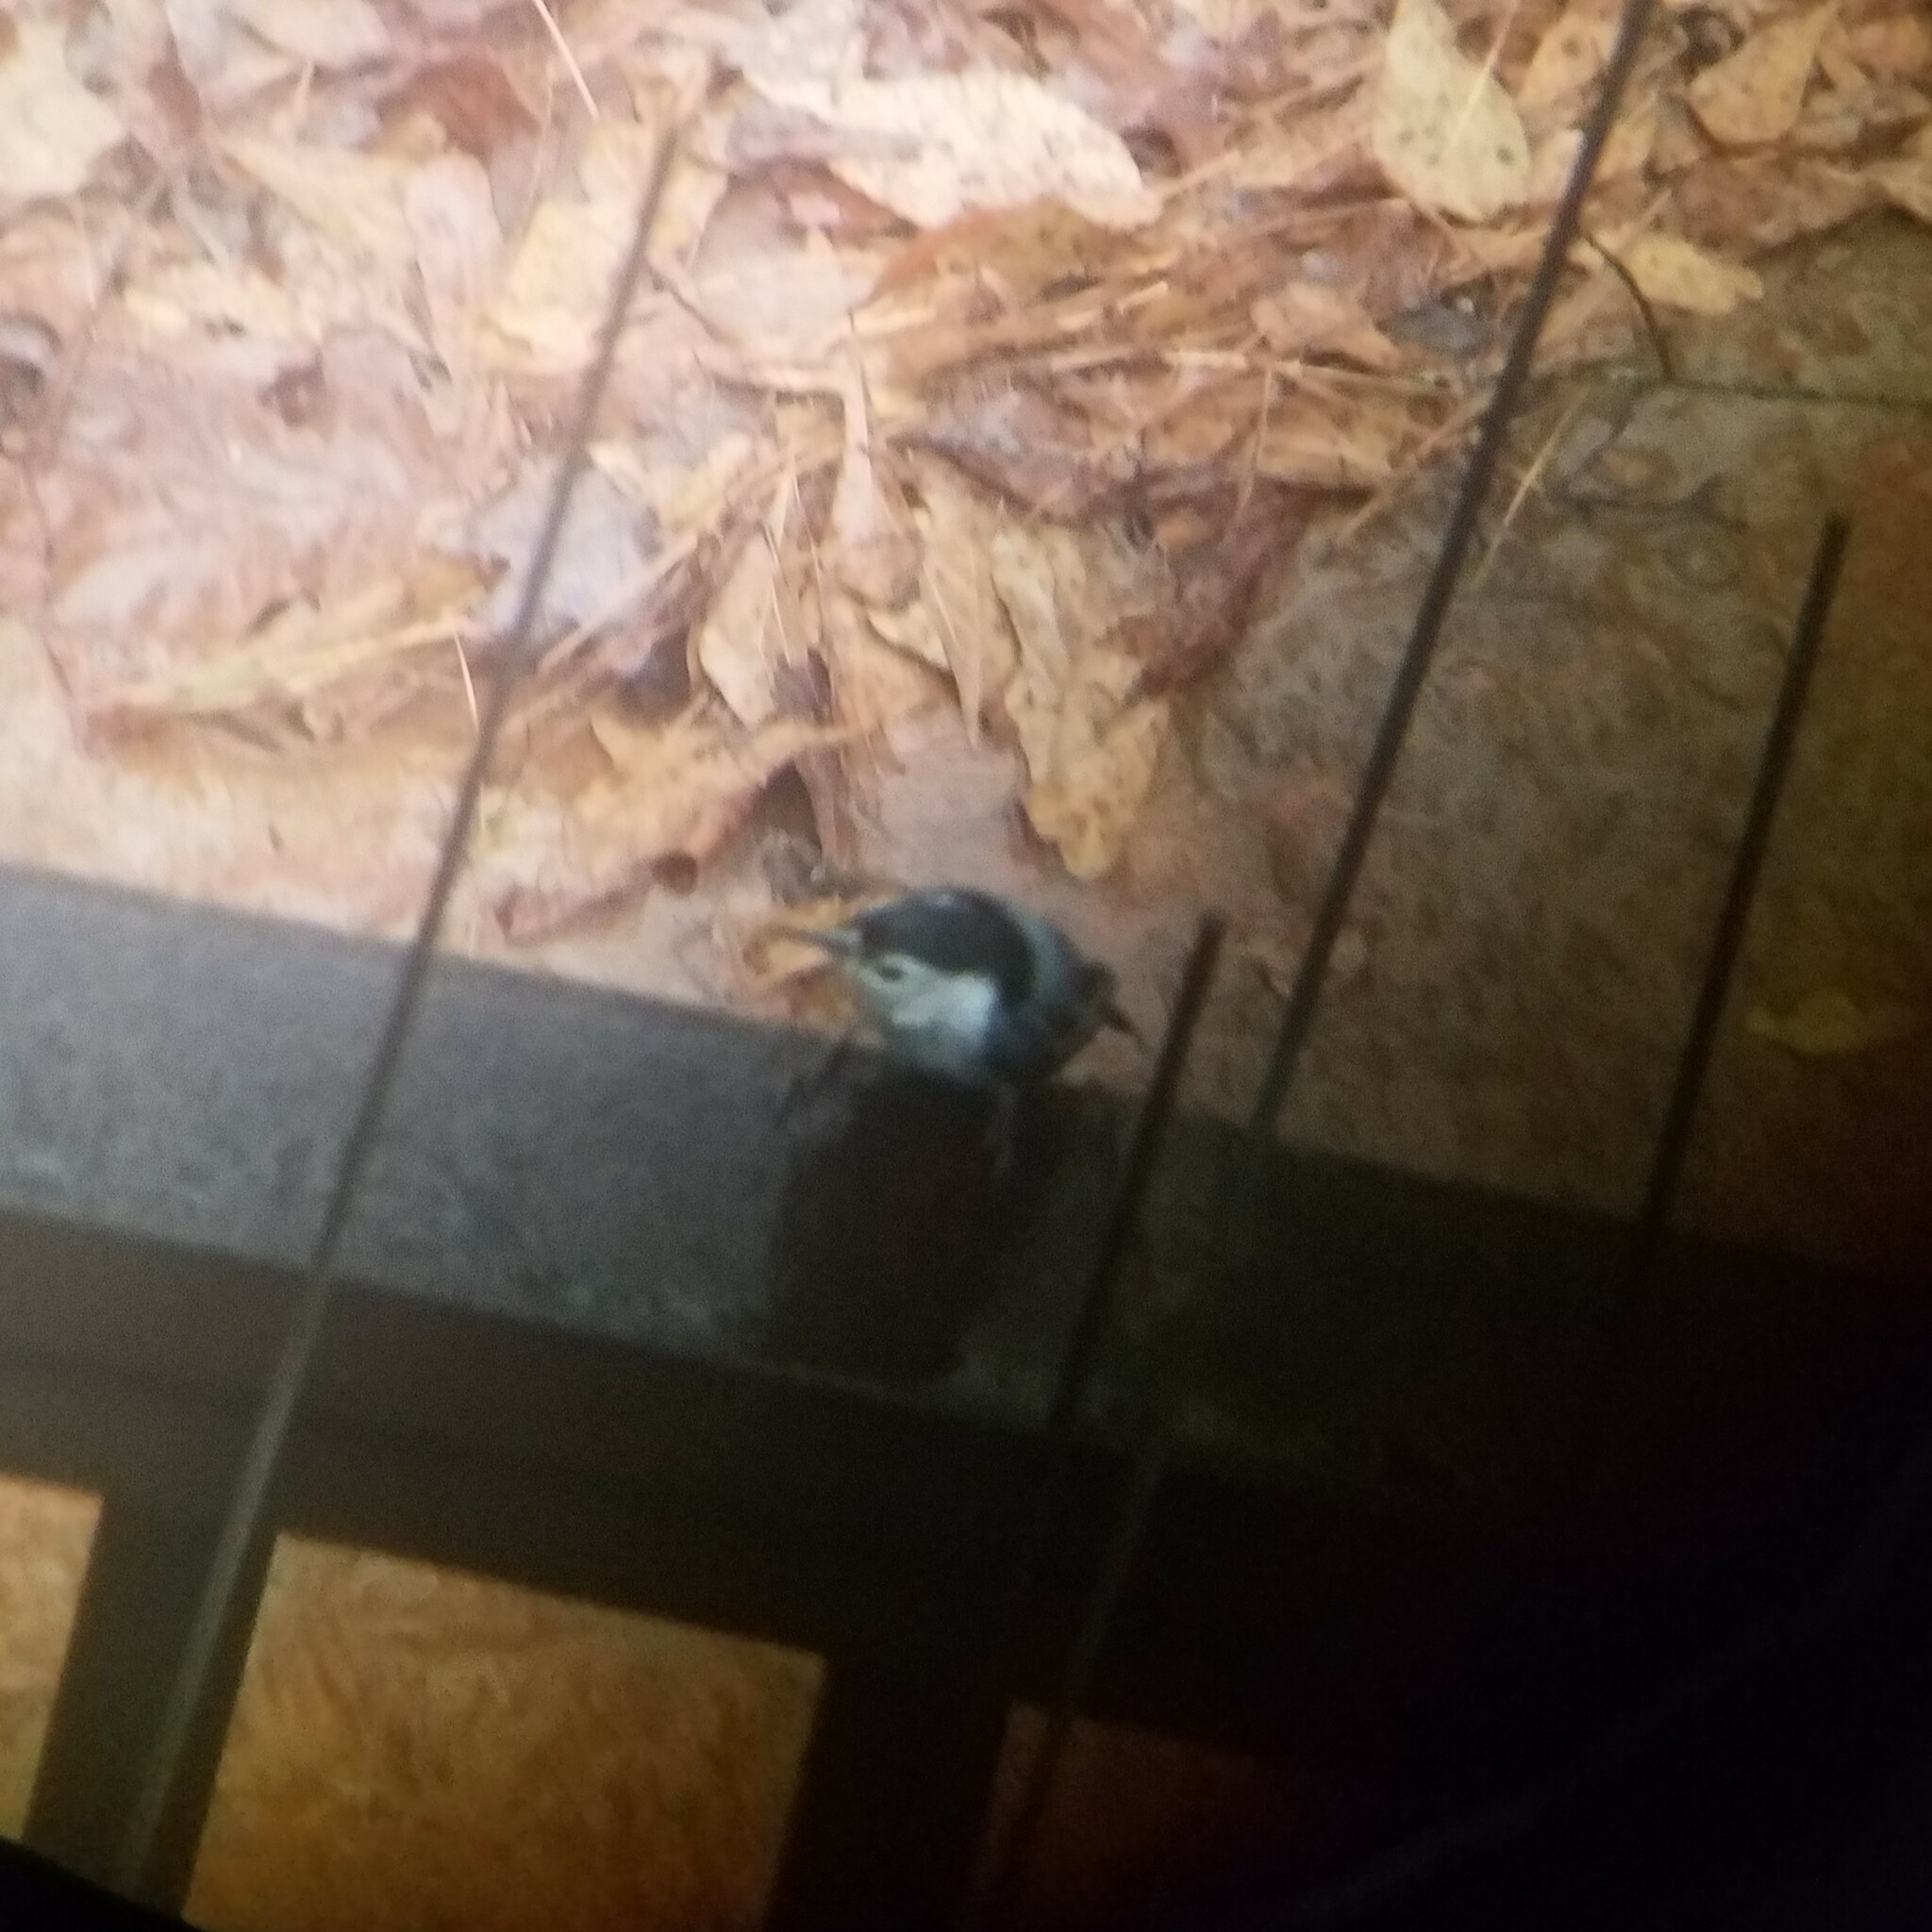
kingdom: Animalia
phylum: Chordata
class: Aves
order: Passeriformes
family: Sittidae
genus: Sitta
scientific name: Sitta carolinensis
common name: White-breasted nuthatch
